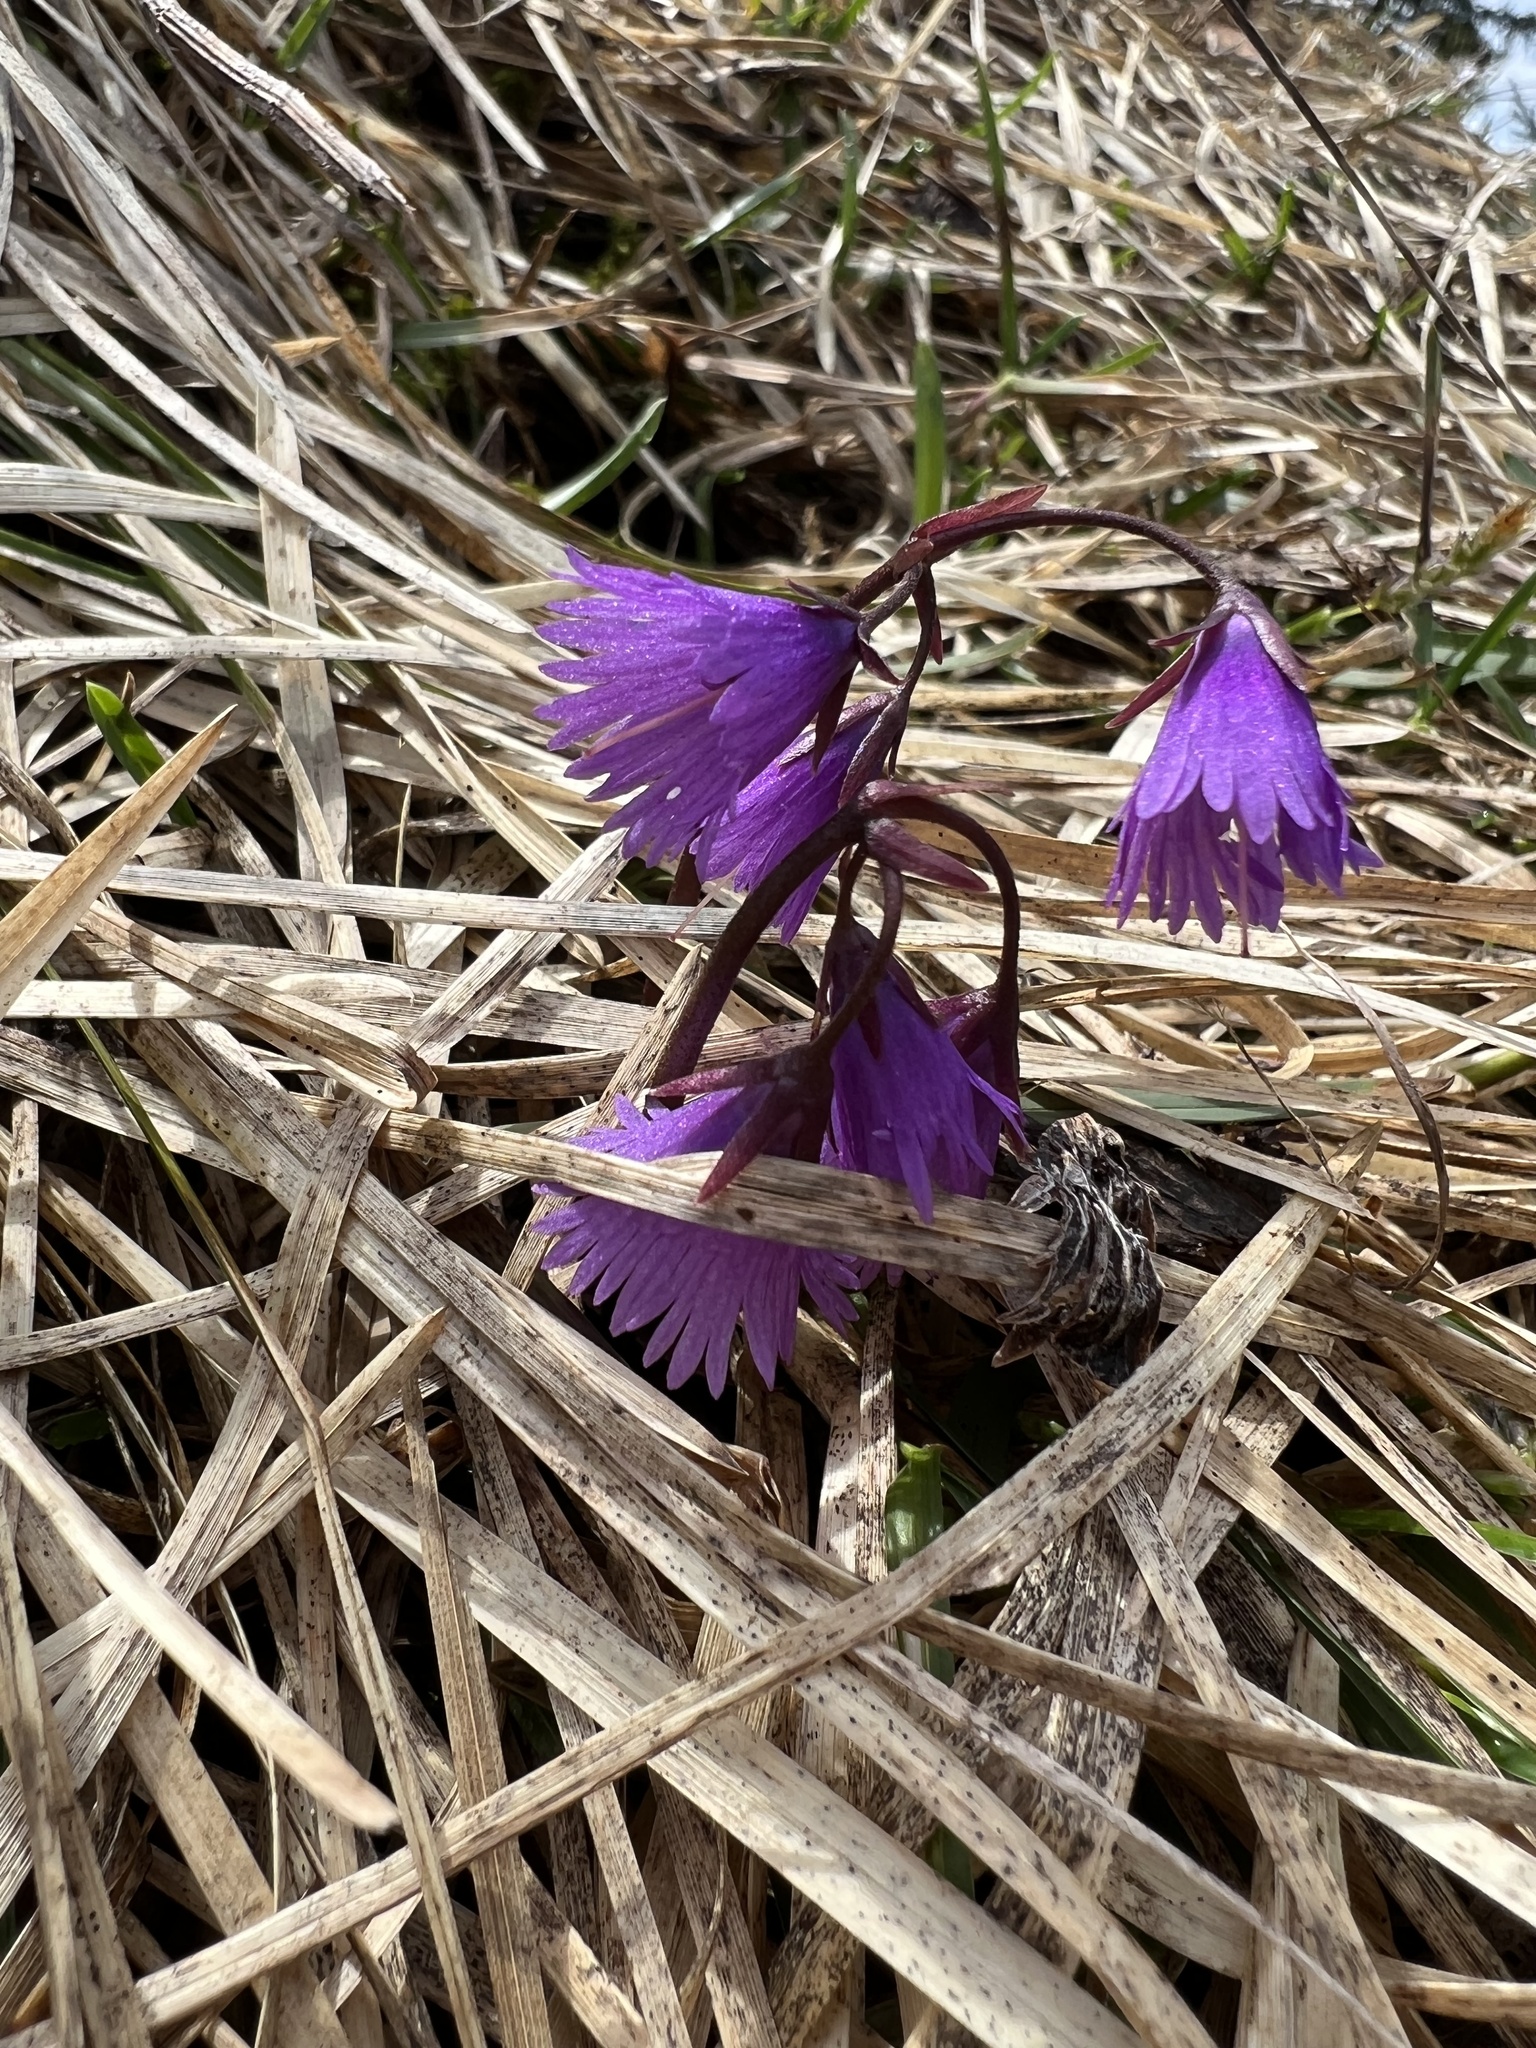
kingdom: Plantae
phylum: Tracheophyta
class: Magnoliopsida
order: Ericales
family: Primulaceae
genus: Soldanella
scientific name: Soldanella alpina
